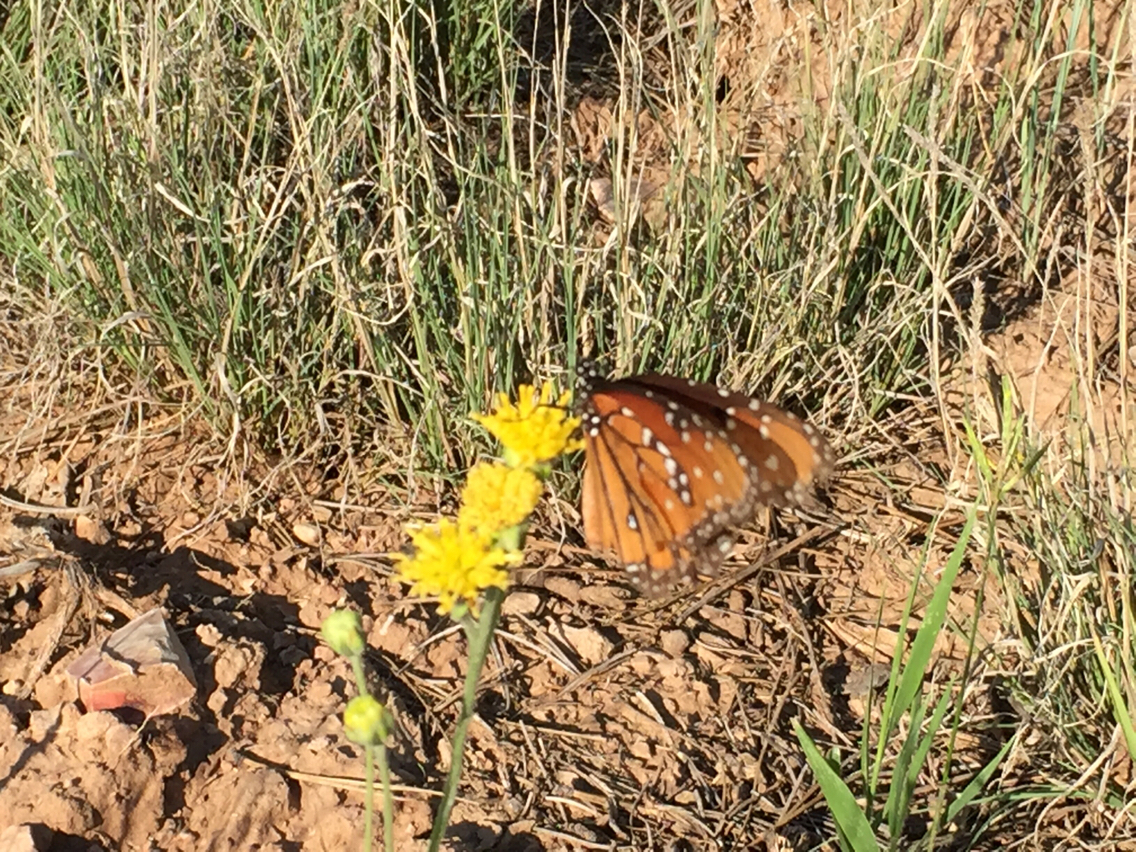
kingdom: Animalia
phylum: Arthropoda
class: Insecta
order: Lepidoptera
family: Nymphalidae
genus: Danaus
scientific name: Danaus gilippus
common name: Queen
